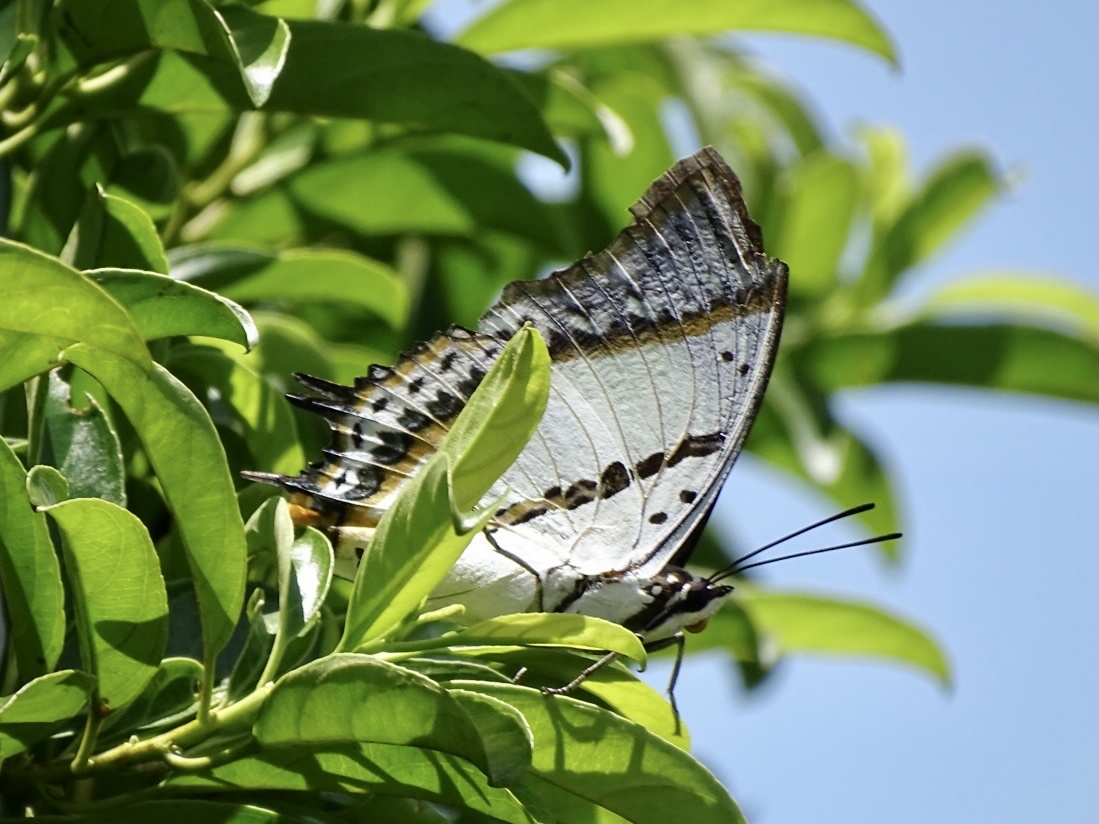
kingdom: Animalia
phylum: Arthropoda
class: Insecta
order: Lepidoptera
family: Nymphalidae
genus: Polyura
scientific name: Polyura nepenthes
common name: Shan nawab
